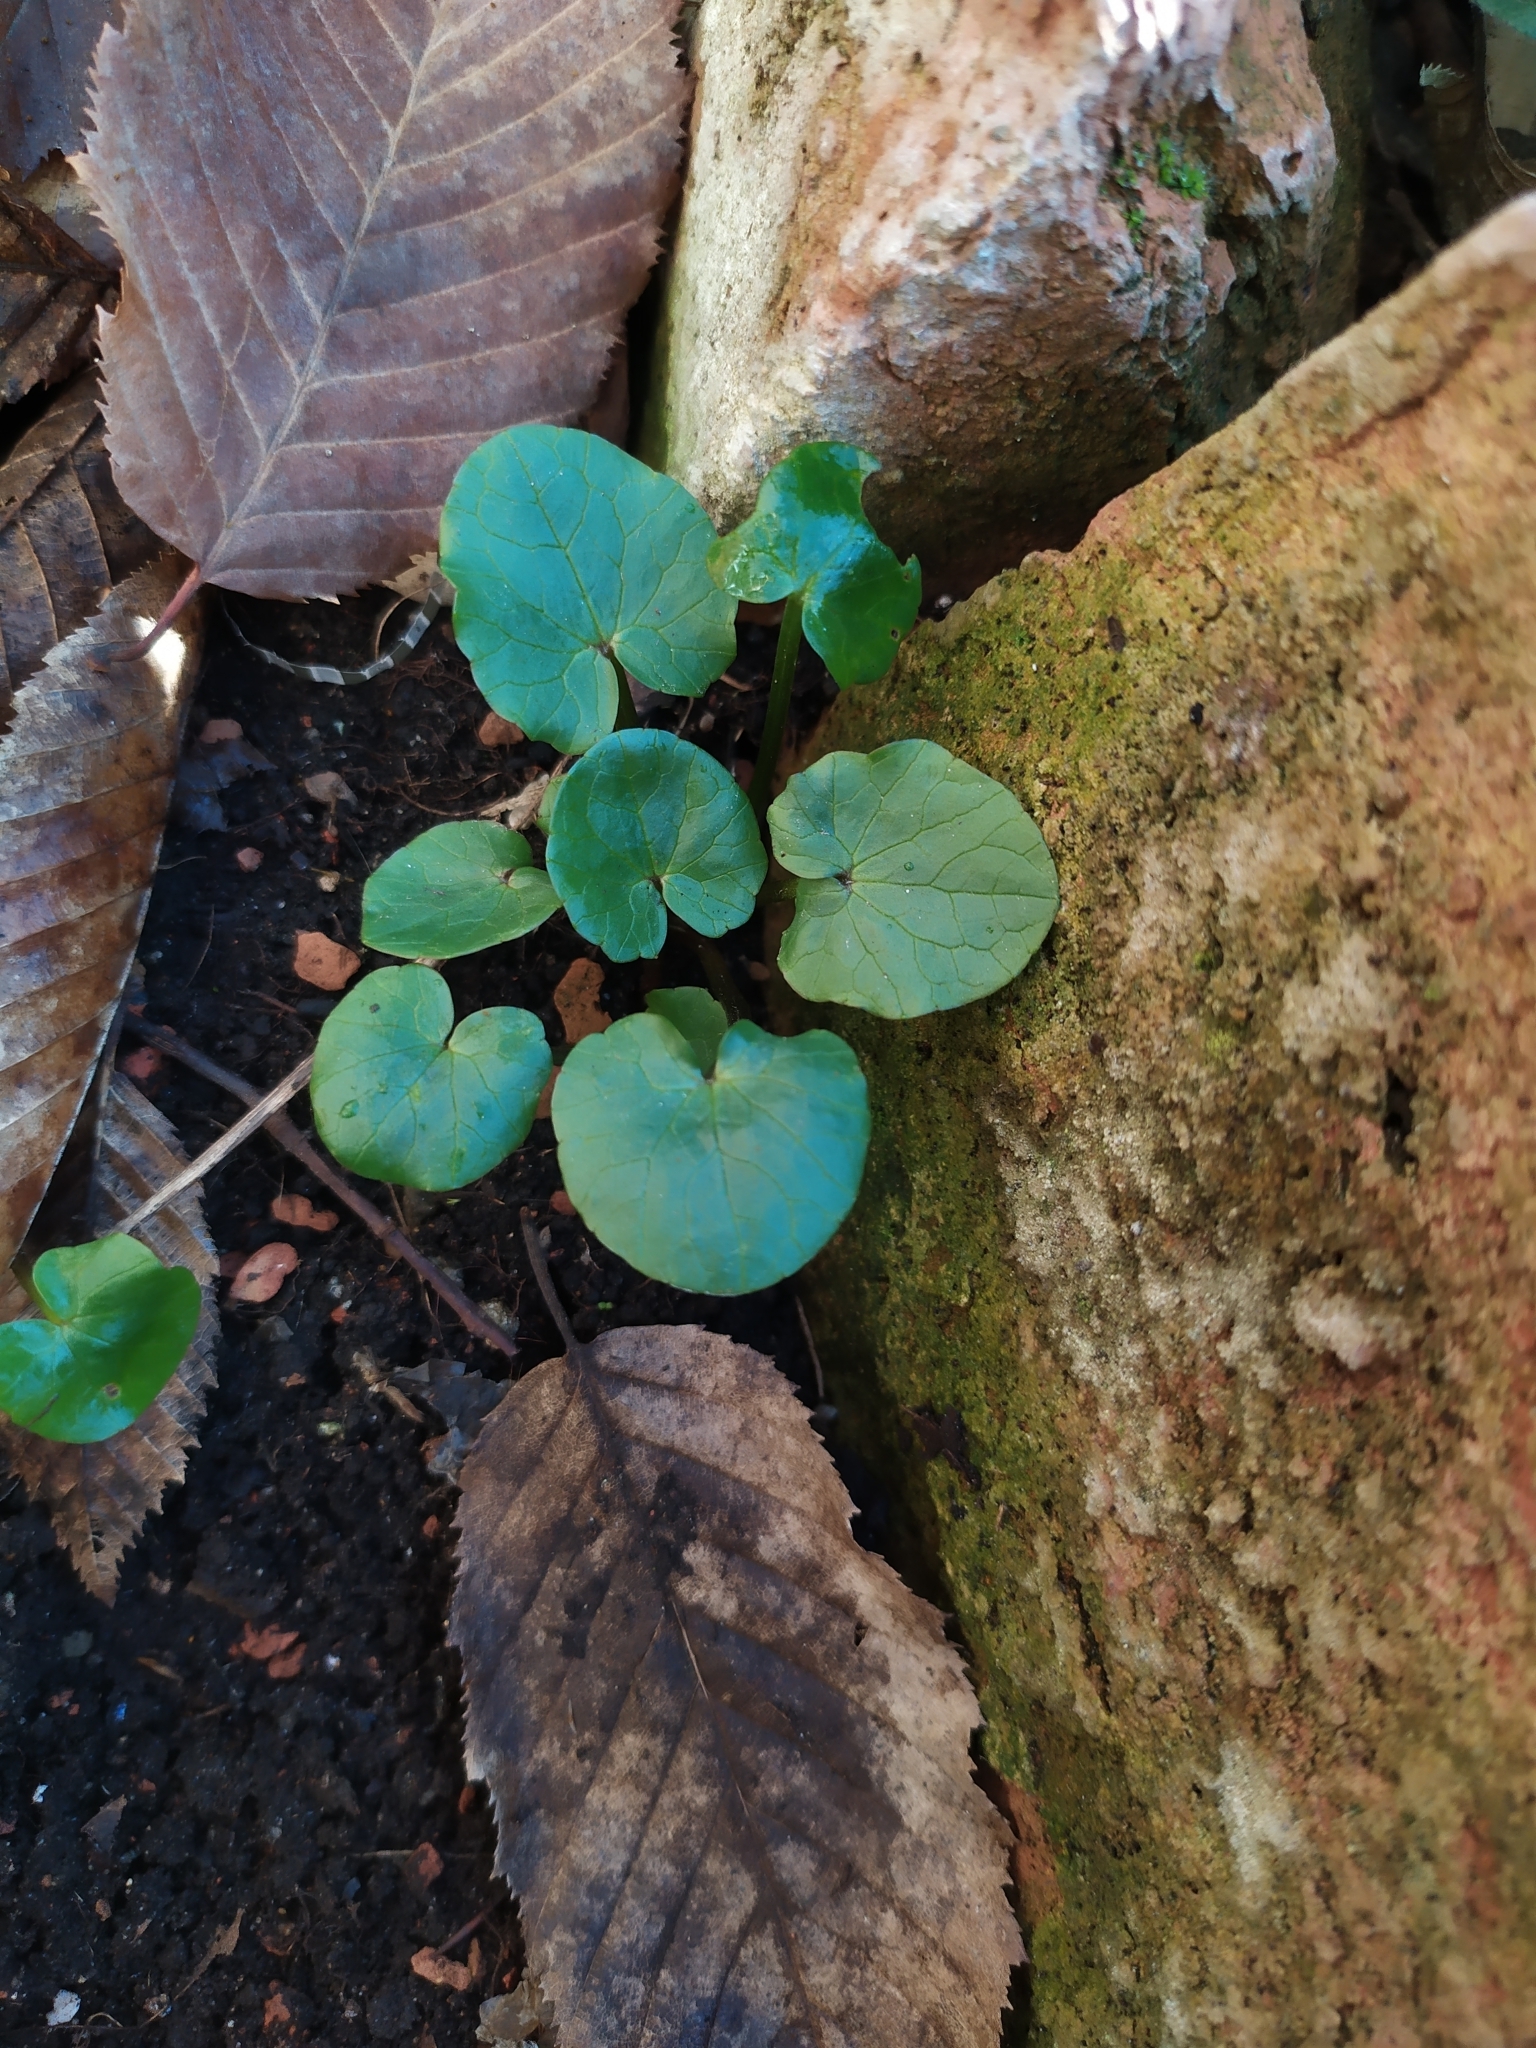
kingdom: Plantae
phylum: Tracheophyta
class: Magnoliopsida
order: Ranunculales
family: Ranunculaceae
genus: Ficaria
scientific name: Ficaria verna
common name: Lesser celandine
